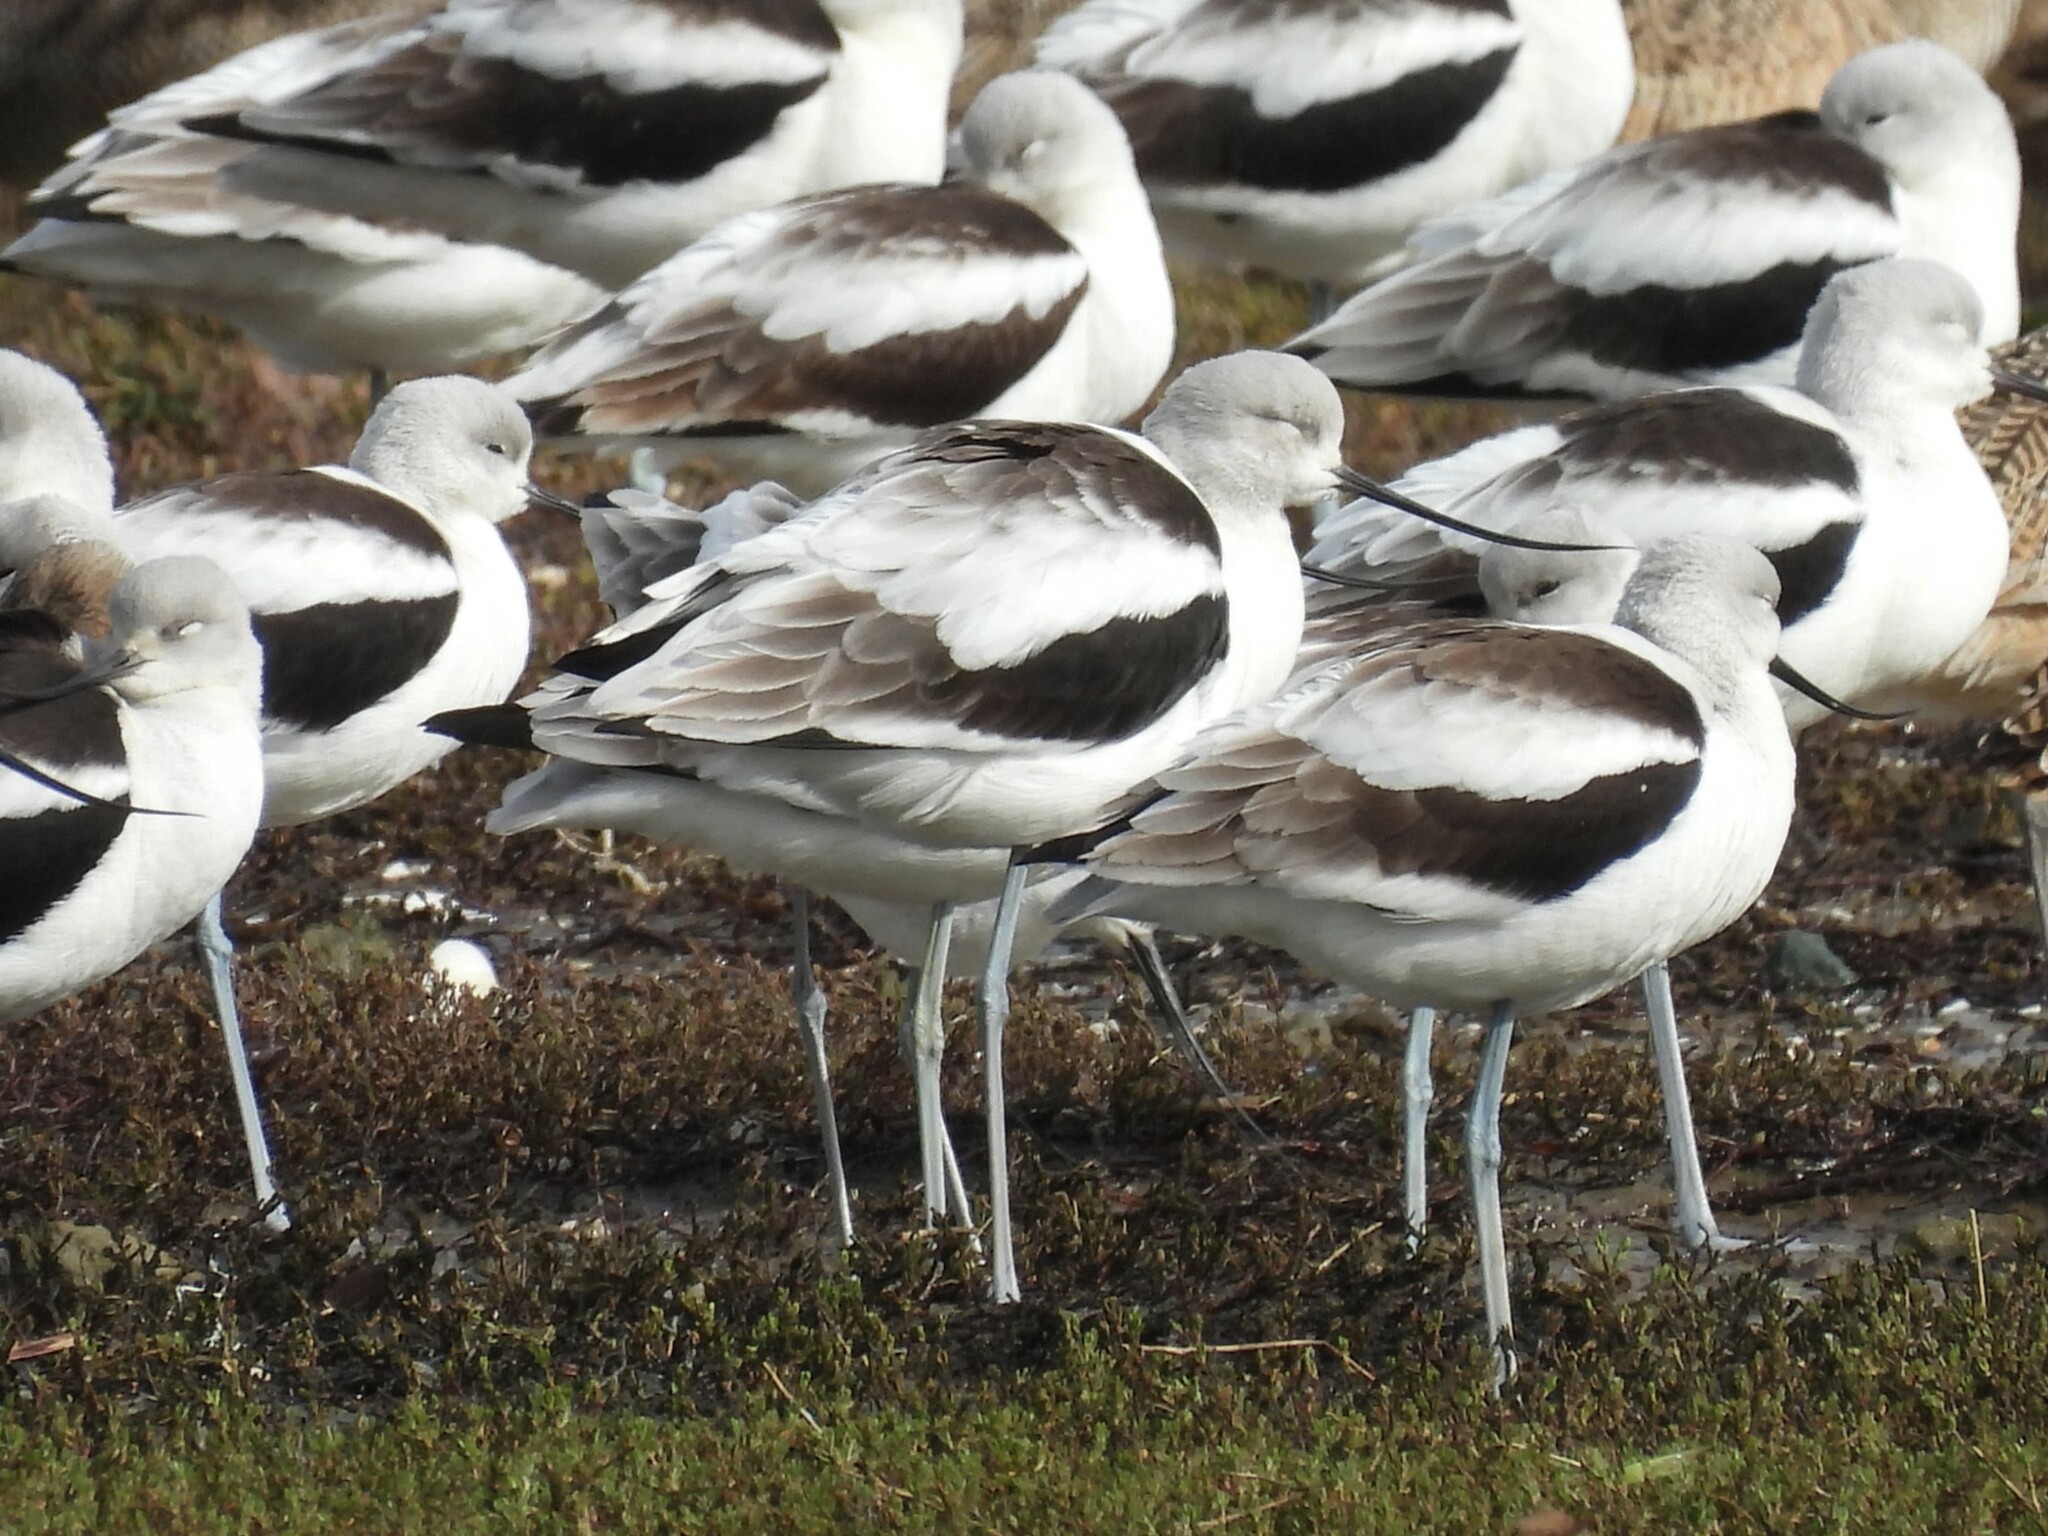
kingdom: Animalia
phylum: Chordata
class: Aves
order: Charadriiformes
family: Recurvirostridae
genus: Recurvirostra
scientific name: Recurvirostra americana
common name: American avocet
